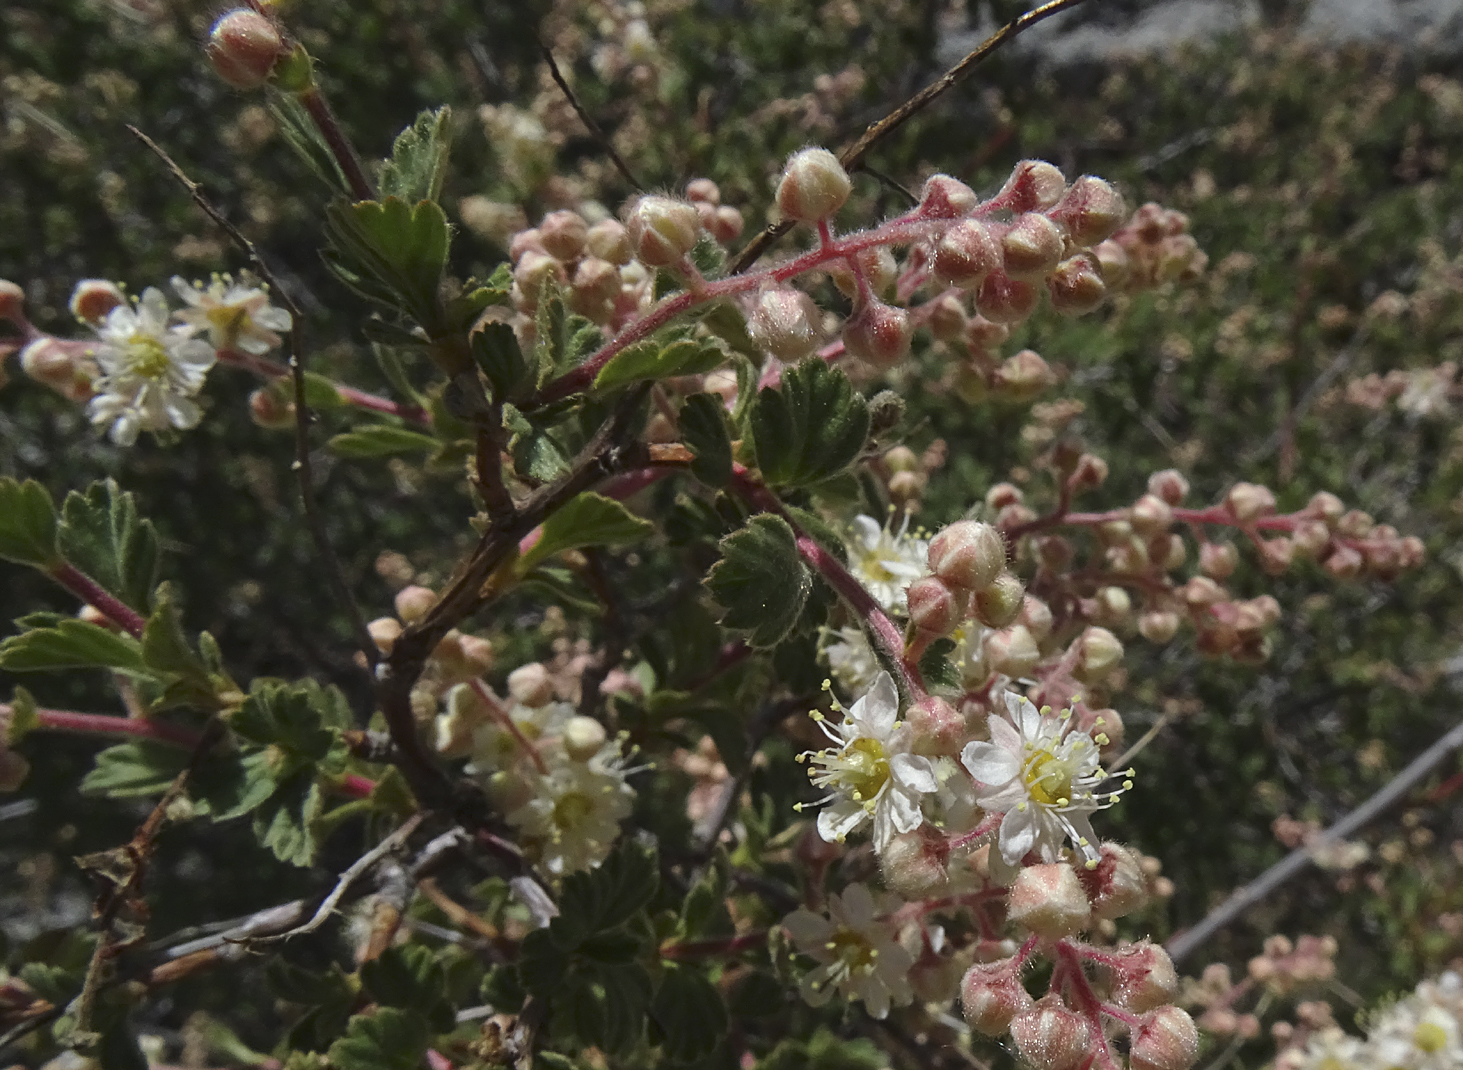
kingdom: Plantae
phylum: Tracheophyta
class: Magnoliopsida
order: Rosales
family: Rosaceae
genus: Holodiscus
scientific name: Holodiscus discolor
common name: Oceanspray
